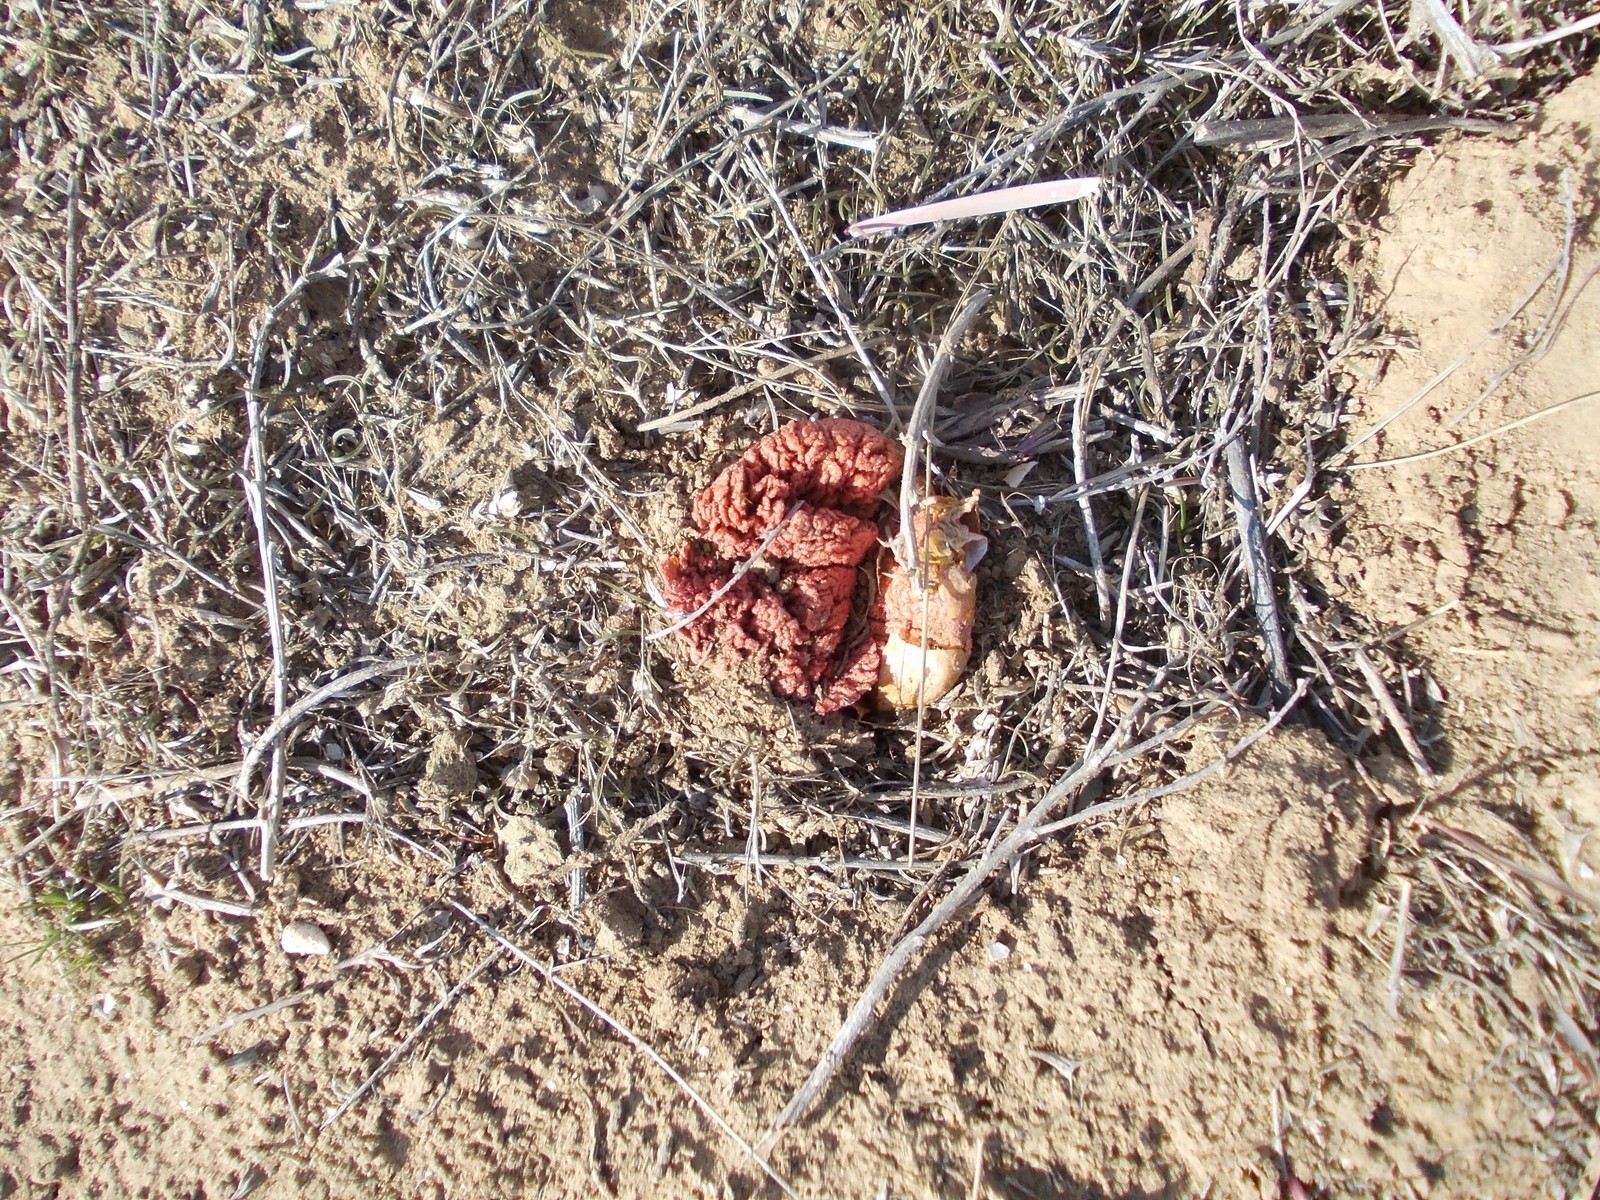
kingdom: Plantae
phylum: Tracheophyta
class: Magnoliopsida
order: Caryophyllales
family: Polygonaceae
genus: Rheum
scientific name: Rheum tataricum
